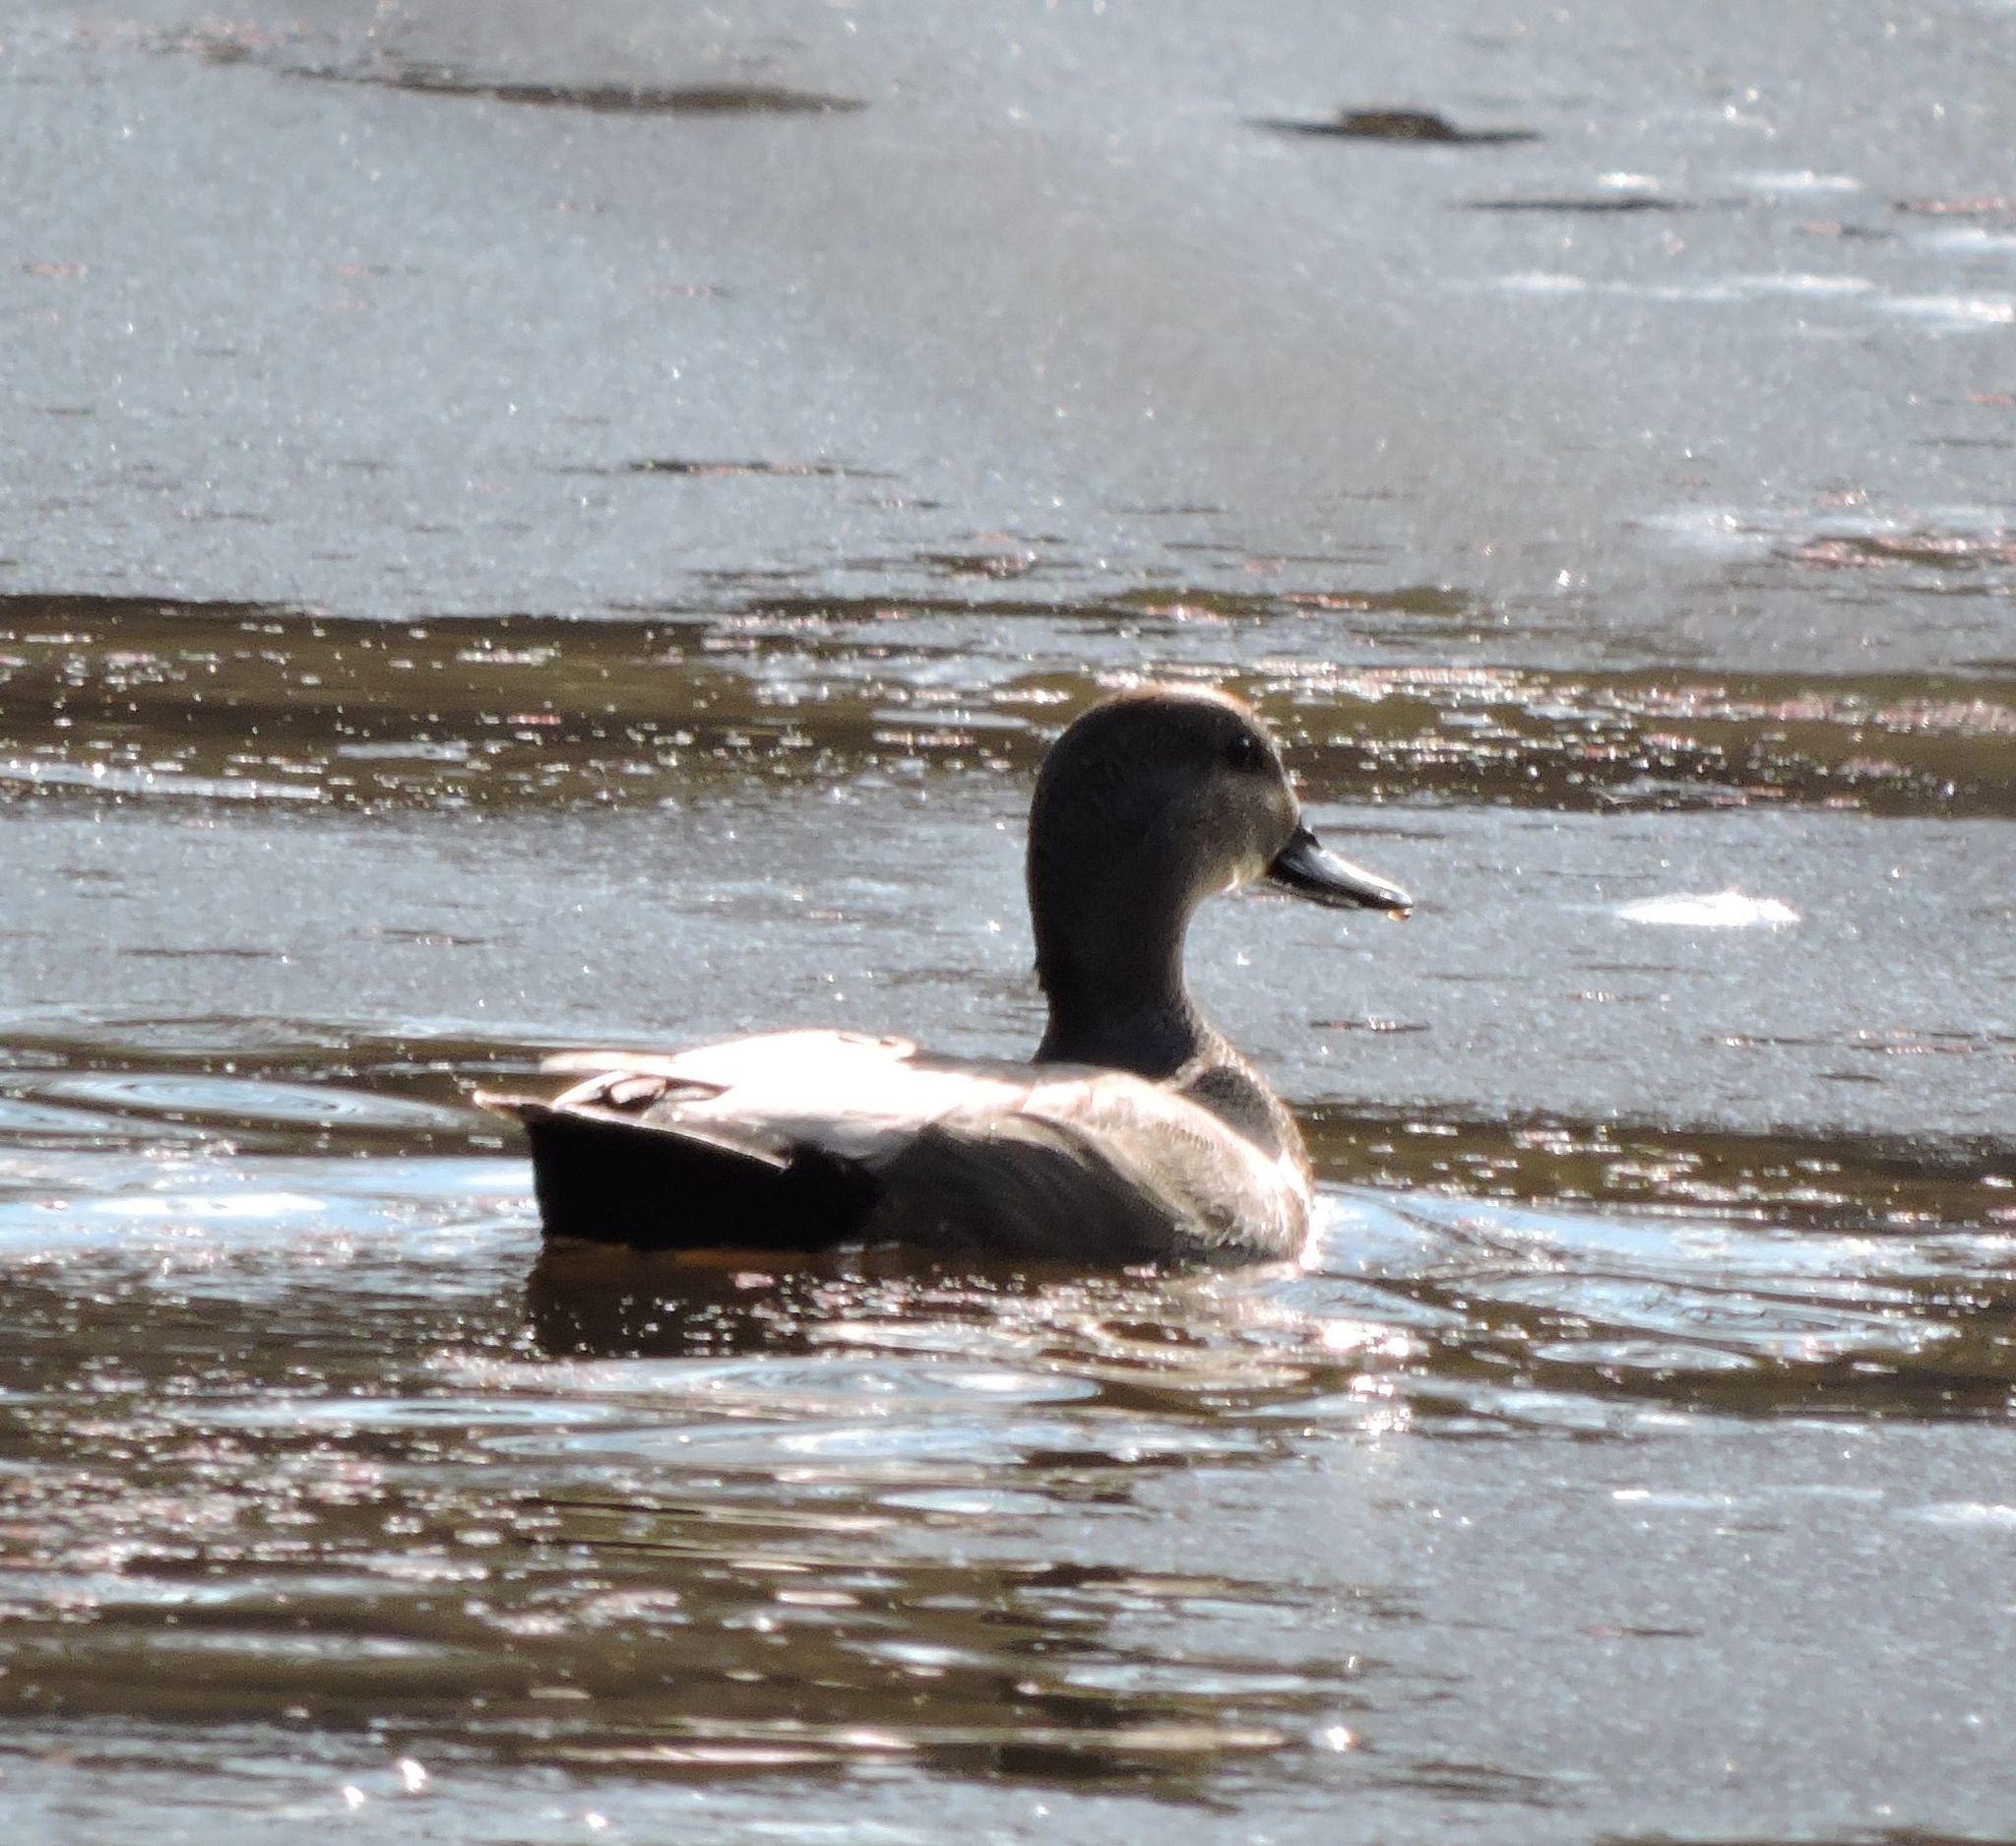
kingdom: Animalia
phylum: Chordata
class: Aves
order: Anseriformes
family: Anatidae
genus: Mareca
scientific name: Mareca strepera
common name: Gadwall
